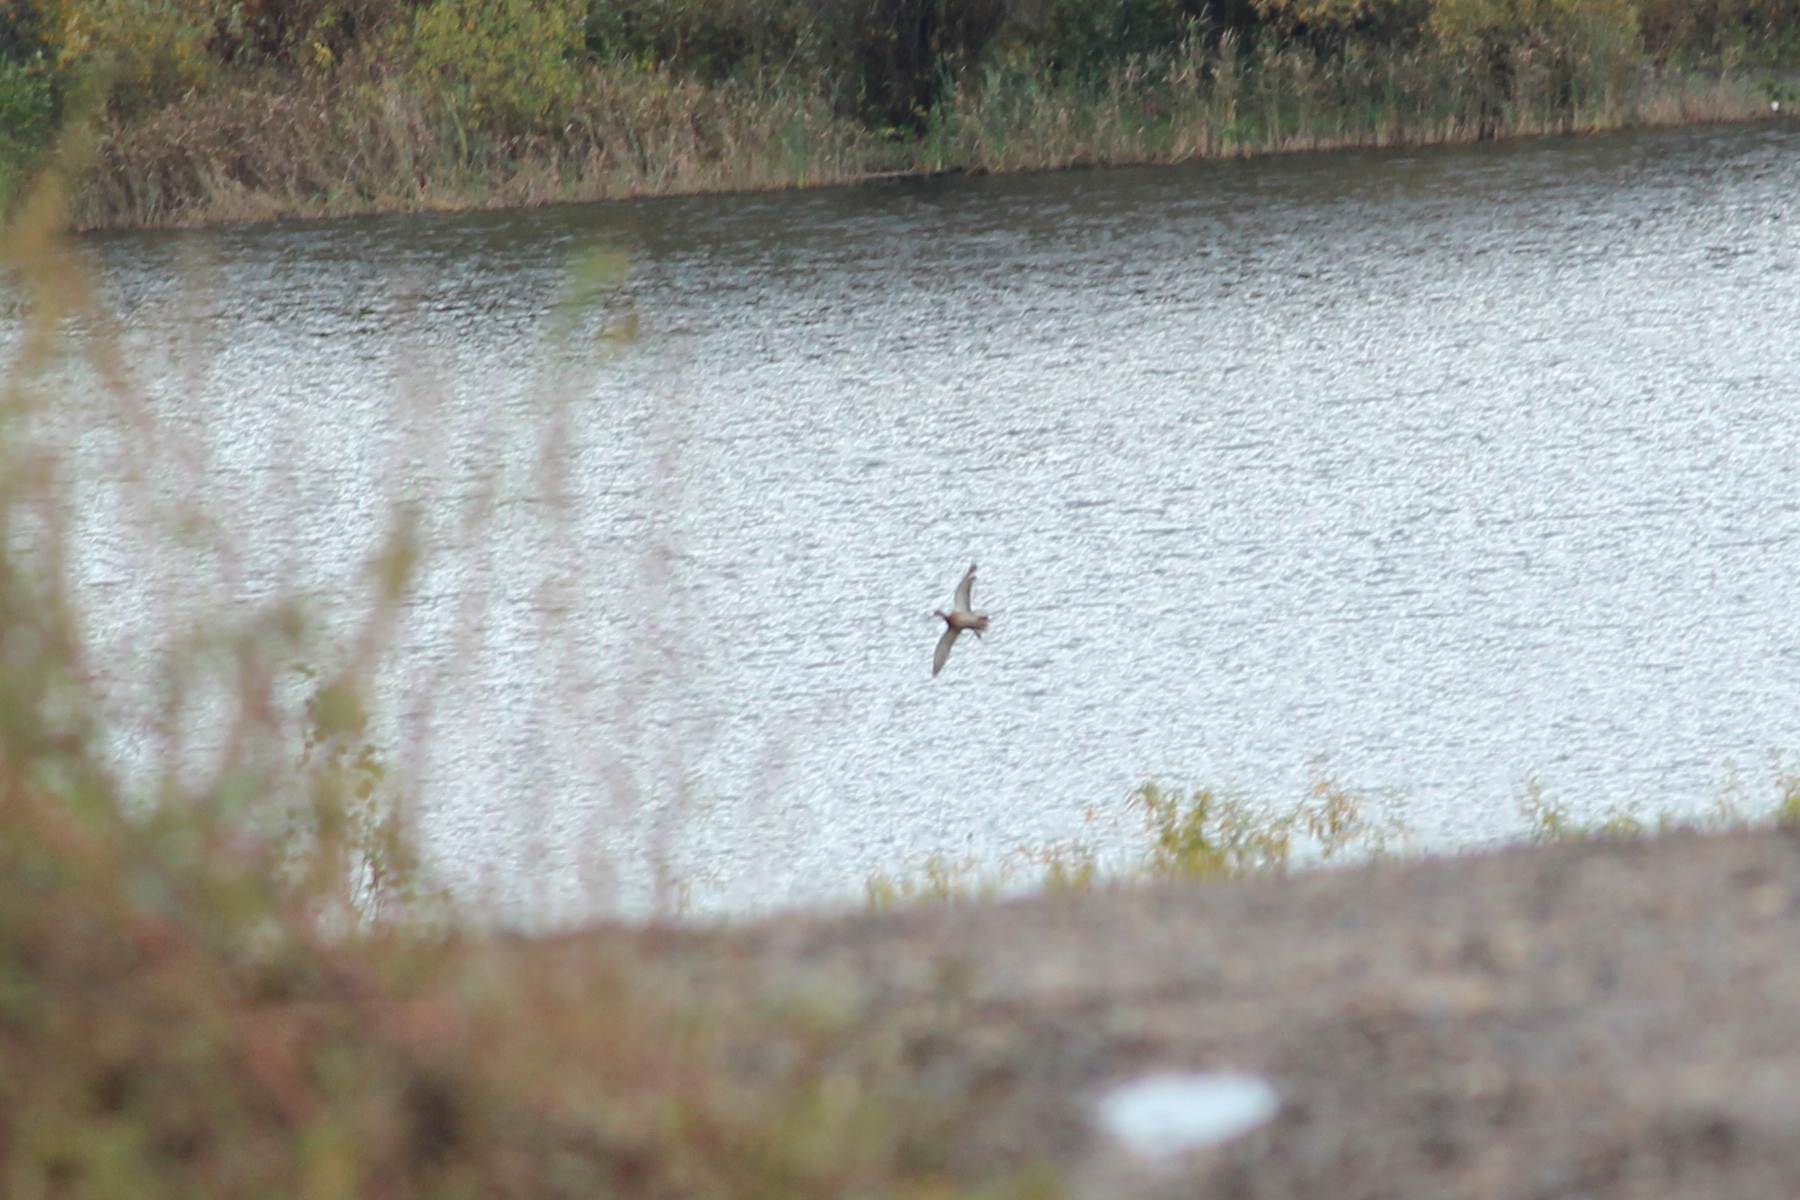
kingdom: Animalia
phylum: Chordata
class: Aves
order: Anseriformes
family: Anatidae
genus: Anas
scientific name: Anas platyrhynchos
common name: Mallard
